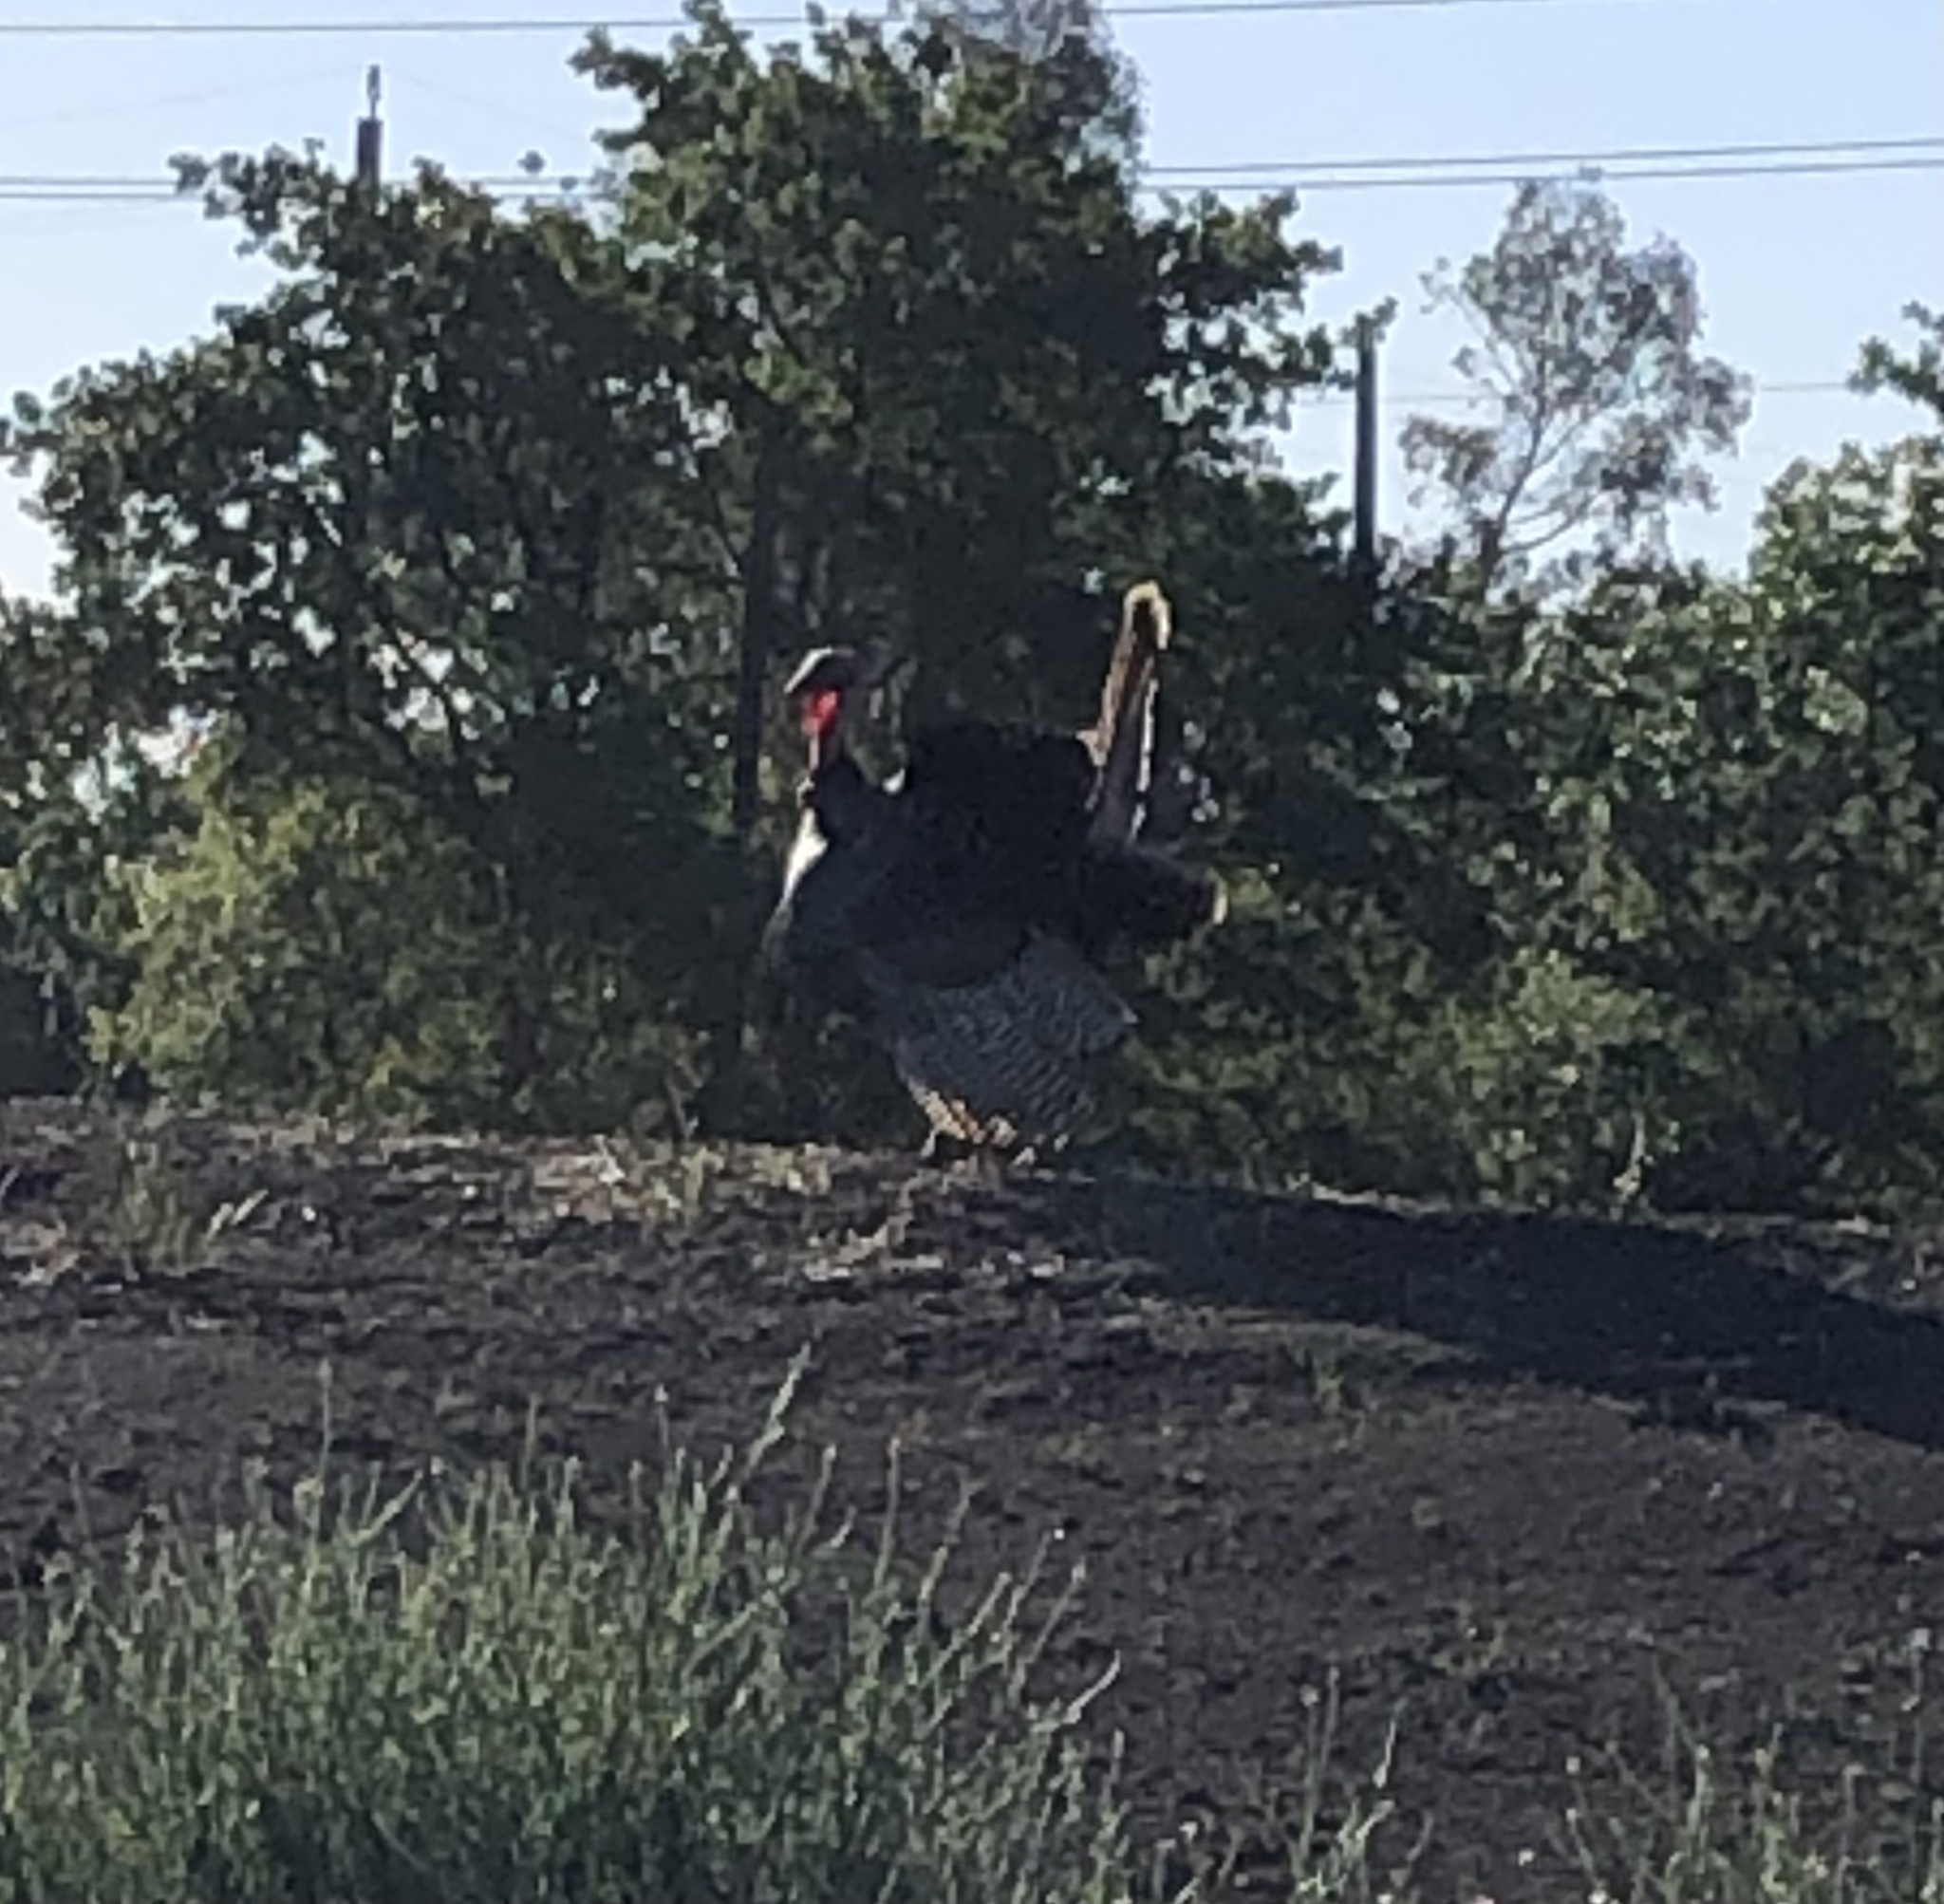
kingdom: Animalia
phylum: Chordata
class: Aves
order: Galliformes
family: Phasianidae
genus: Meleagris
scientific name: Meleagris gallopavo
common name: Wild turkey
